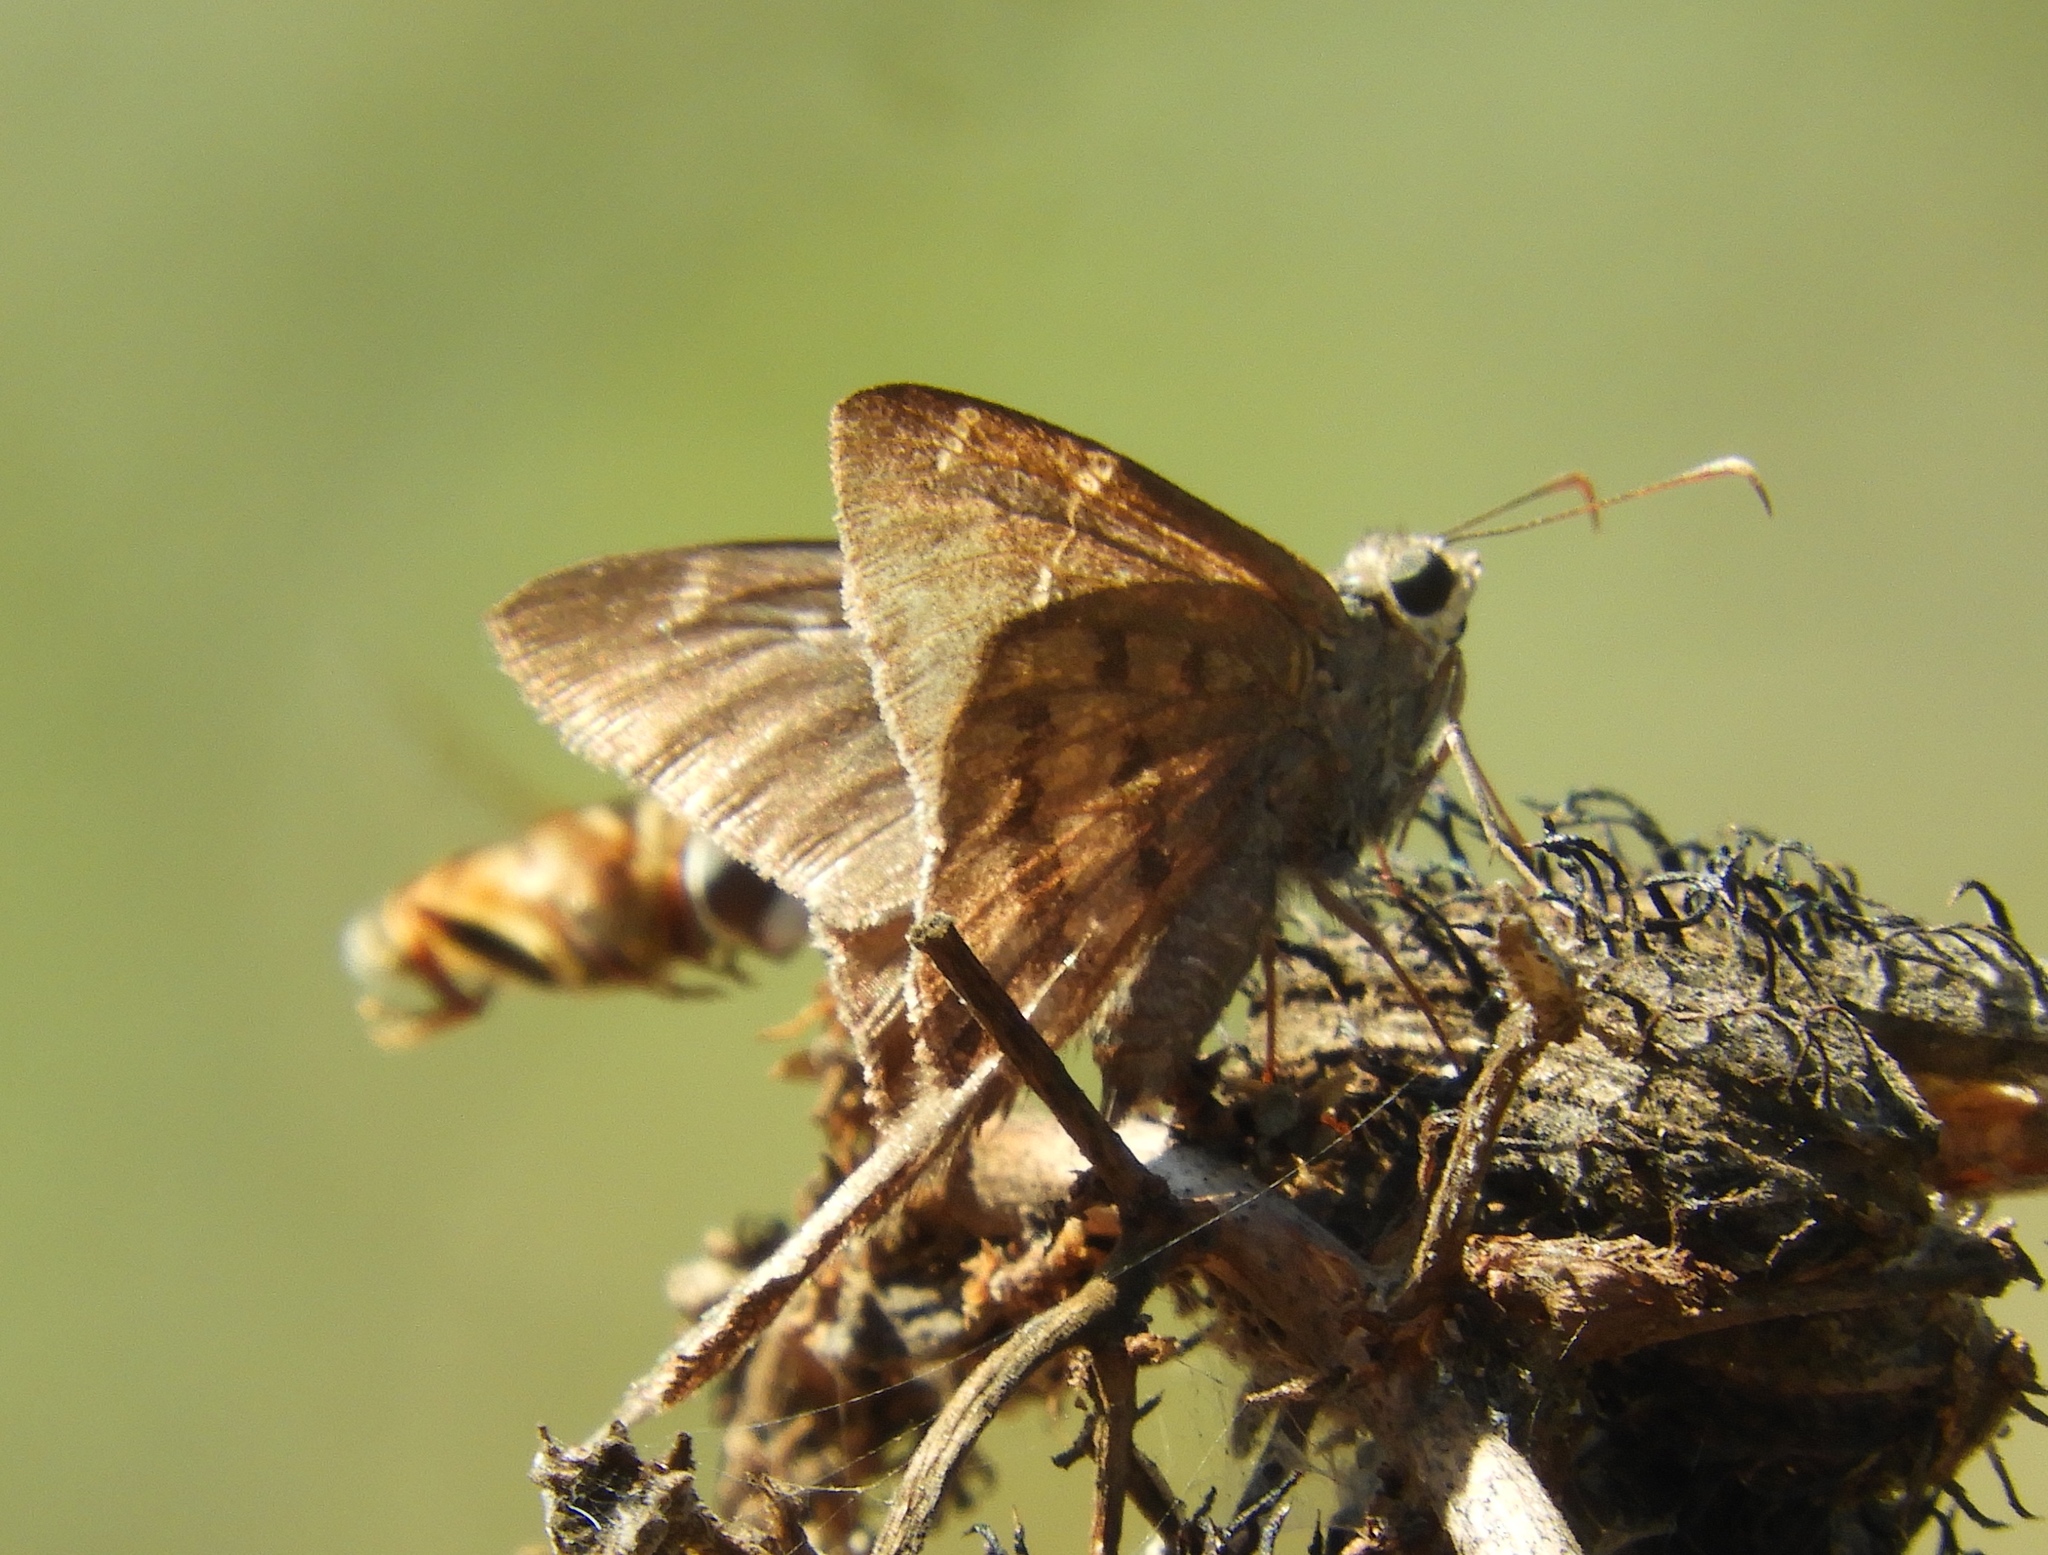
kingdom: Animalia
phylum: Arthropoda
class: Insecta
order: Lepidoptera
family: Hesperiidae
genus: Urbanus
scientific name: Urbanus procne
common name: Brown longtail
